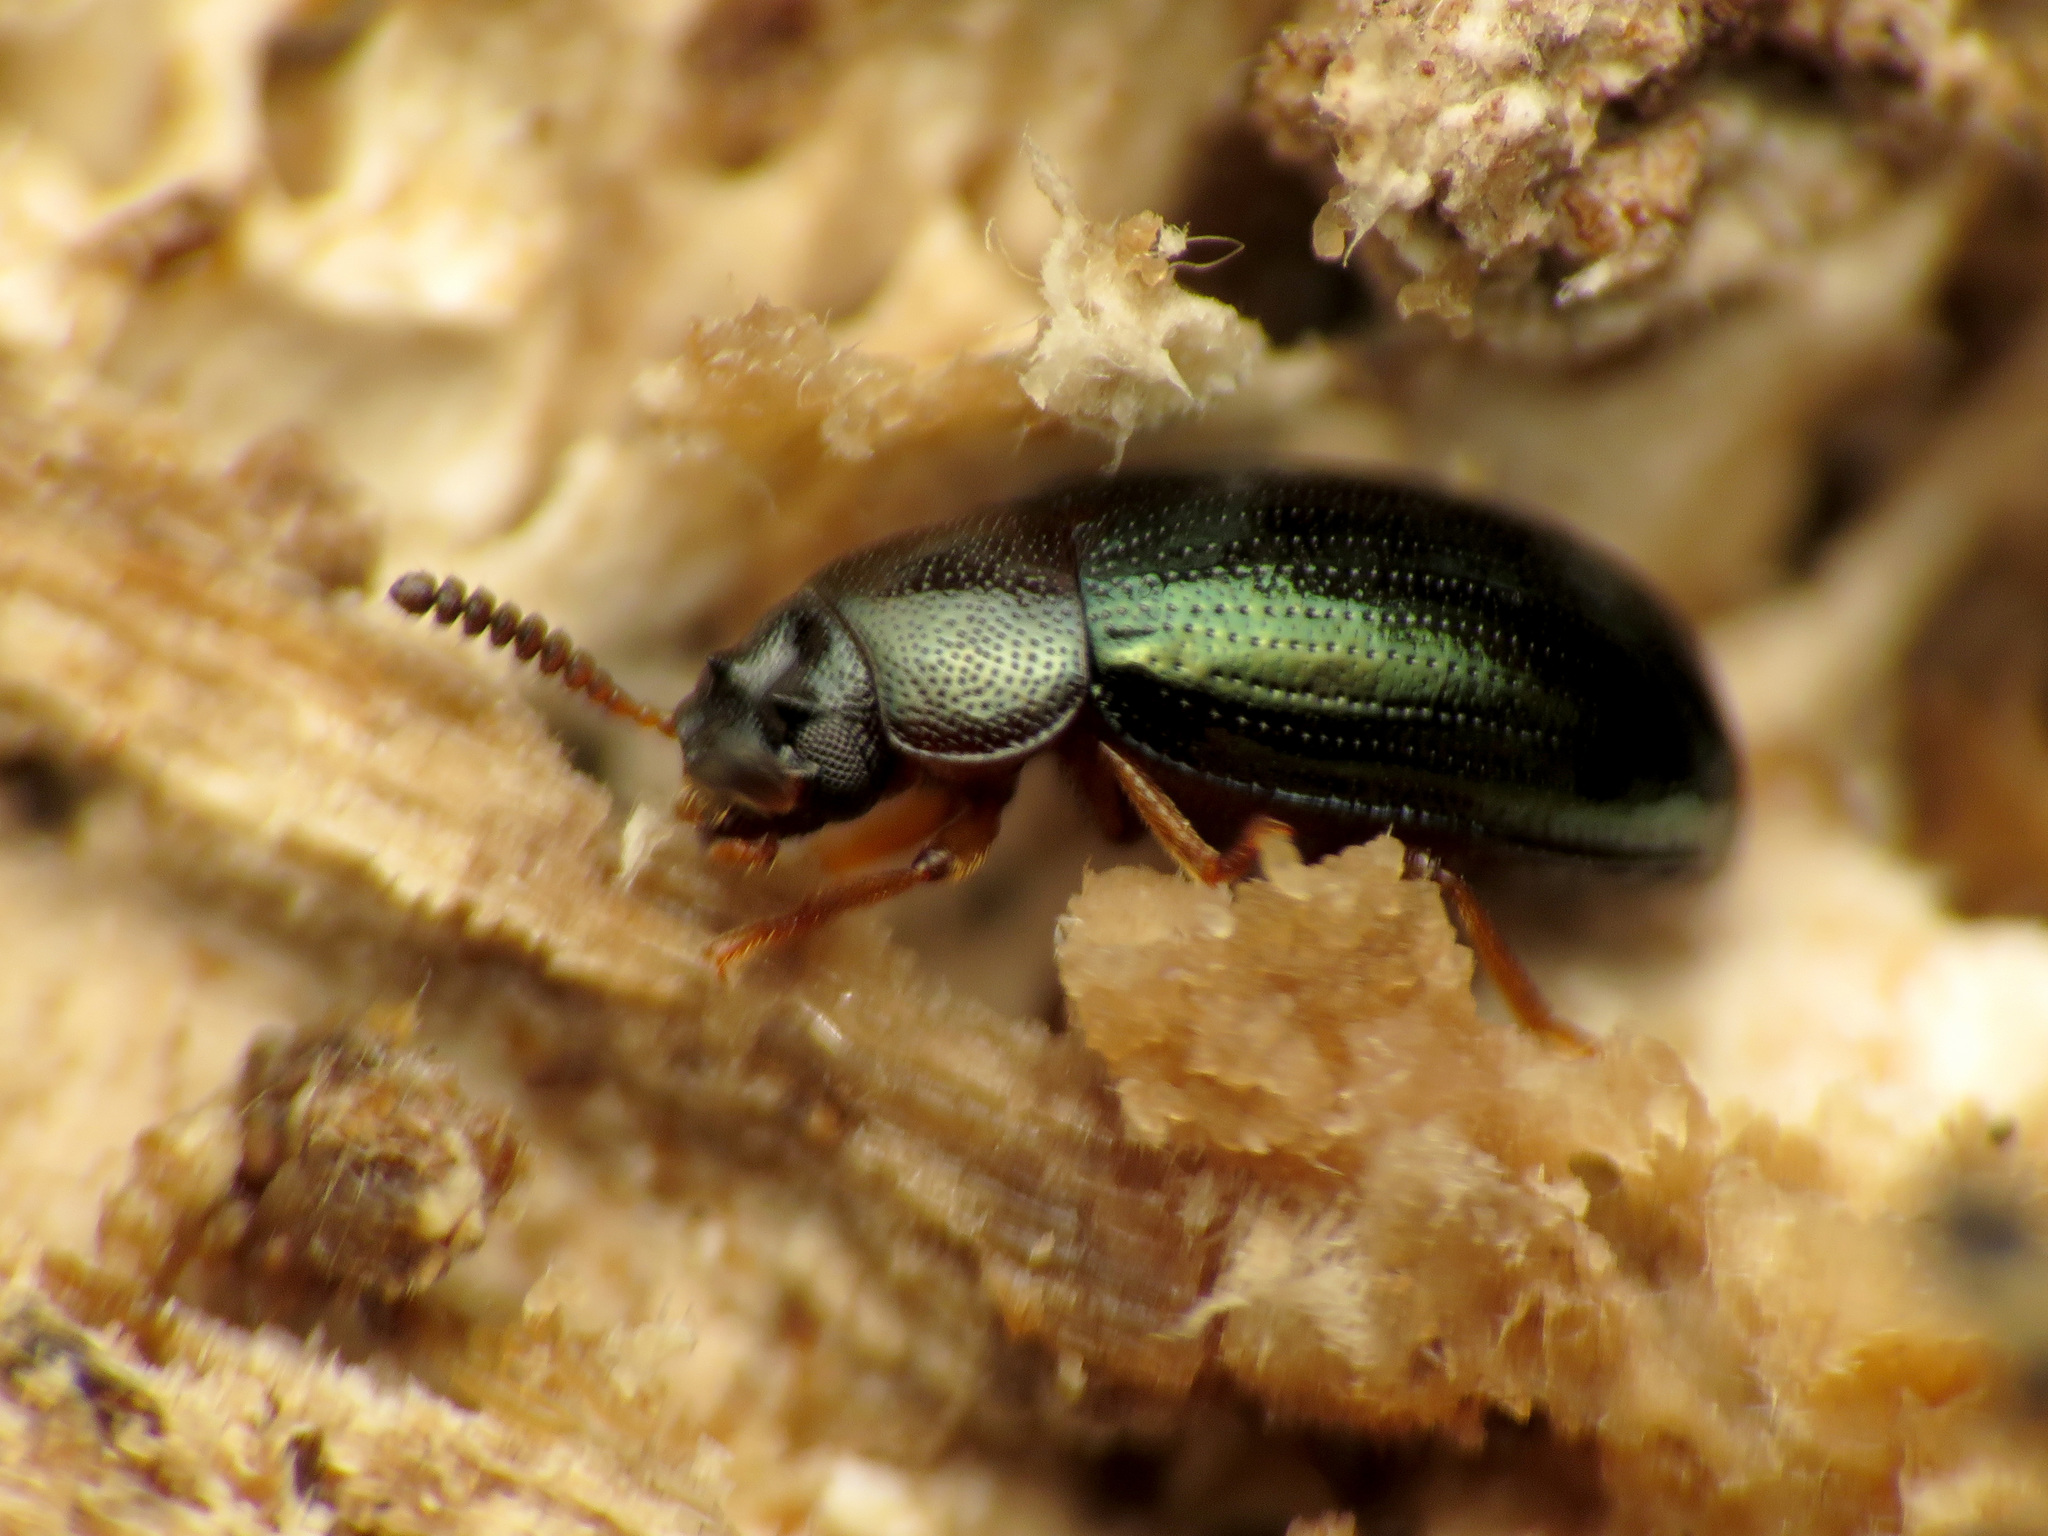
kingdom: Animalia
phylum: Arthropoda
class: Insecta
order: Coleoptera
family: Tenebrionidae
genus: Neomida
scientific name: Neomida bicornis
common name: Two-horned darkling beetle
